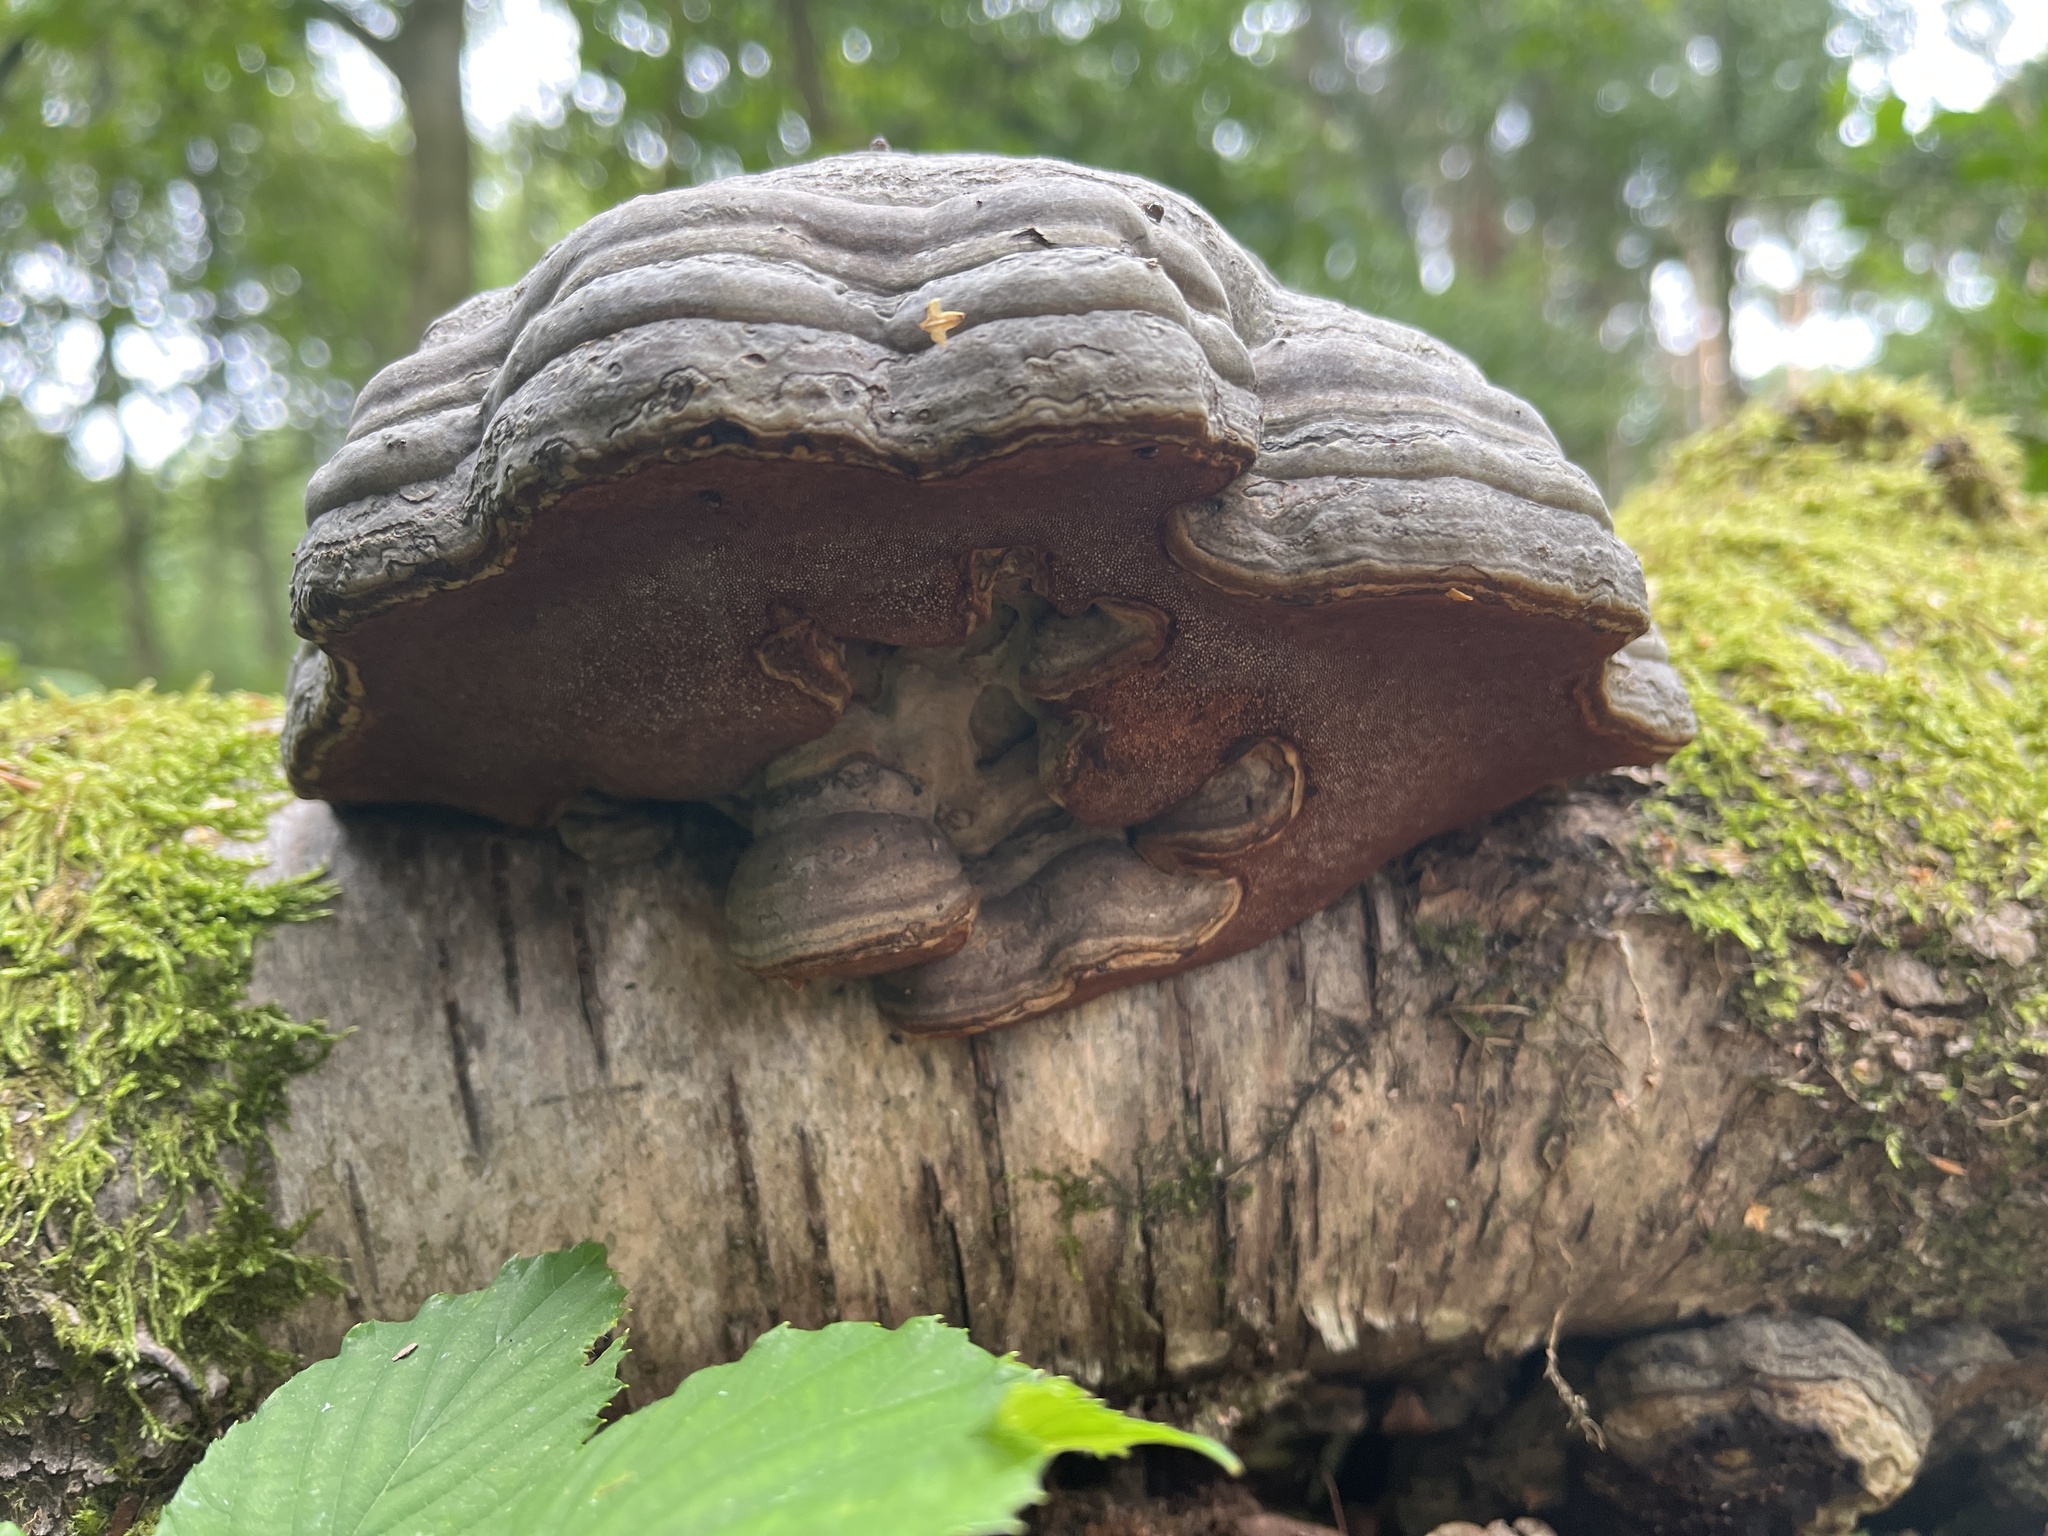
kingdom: Fungi
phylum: Basidiomycota
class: Agaricomycetes
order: Polyporales
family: Polyporaceae
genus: Fomes
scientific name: Fomes fomentarius
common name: Hoof fungus
